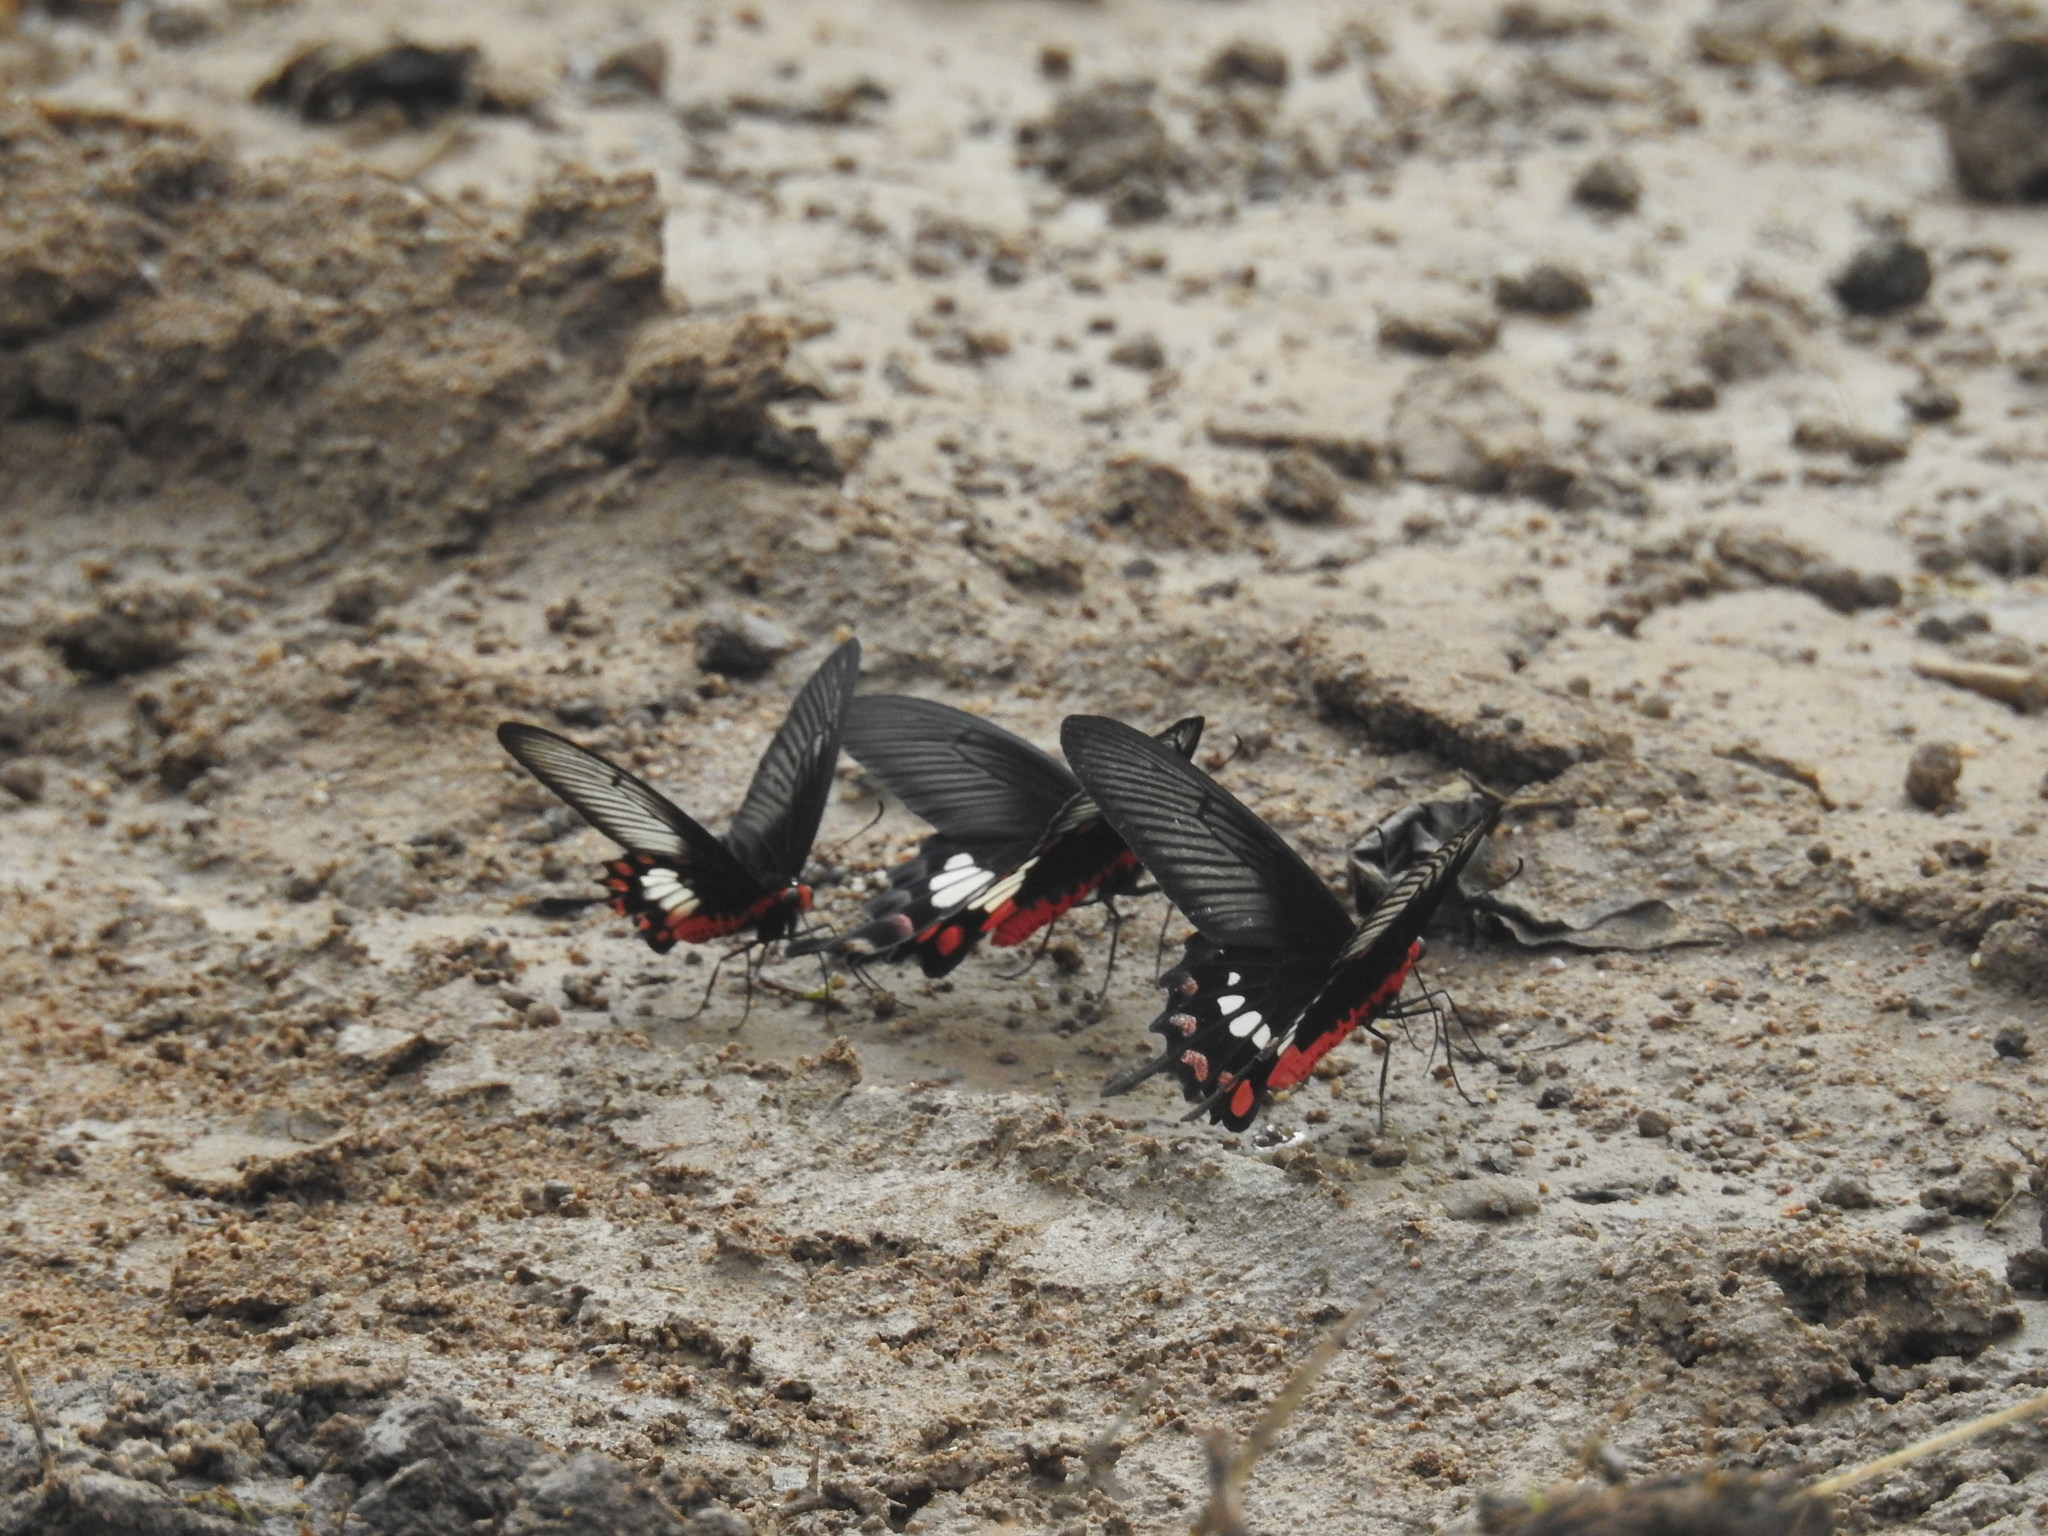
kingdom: Animalia
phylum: Arthropoda
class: Insecta
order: Lepidoptera
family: Papilionidae
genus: Pachliopta
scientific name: Pachliopta aristolochiae
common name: Common rose
